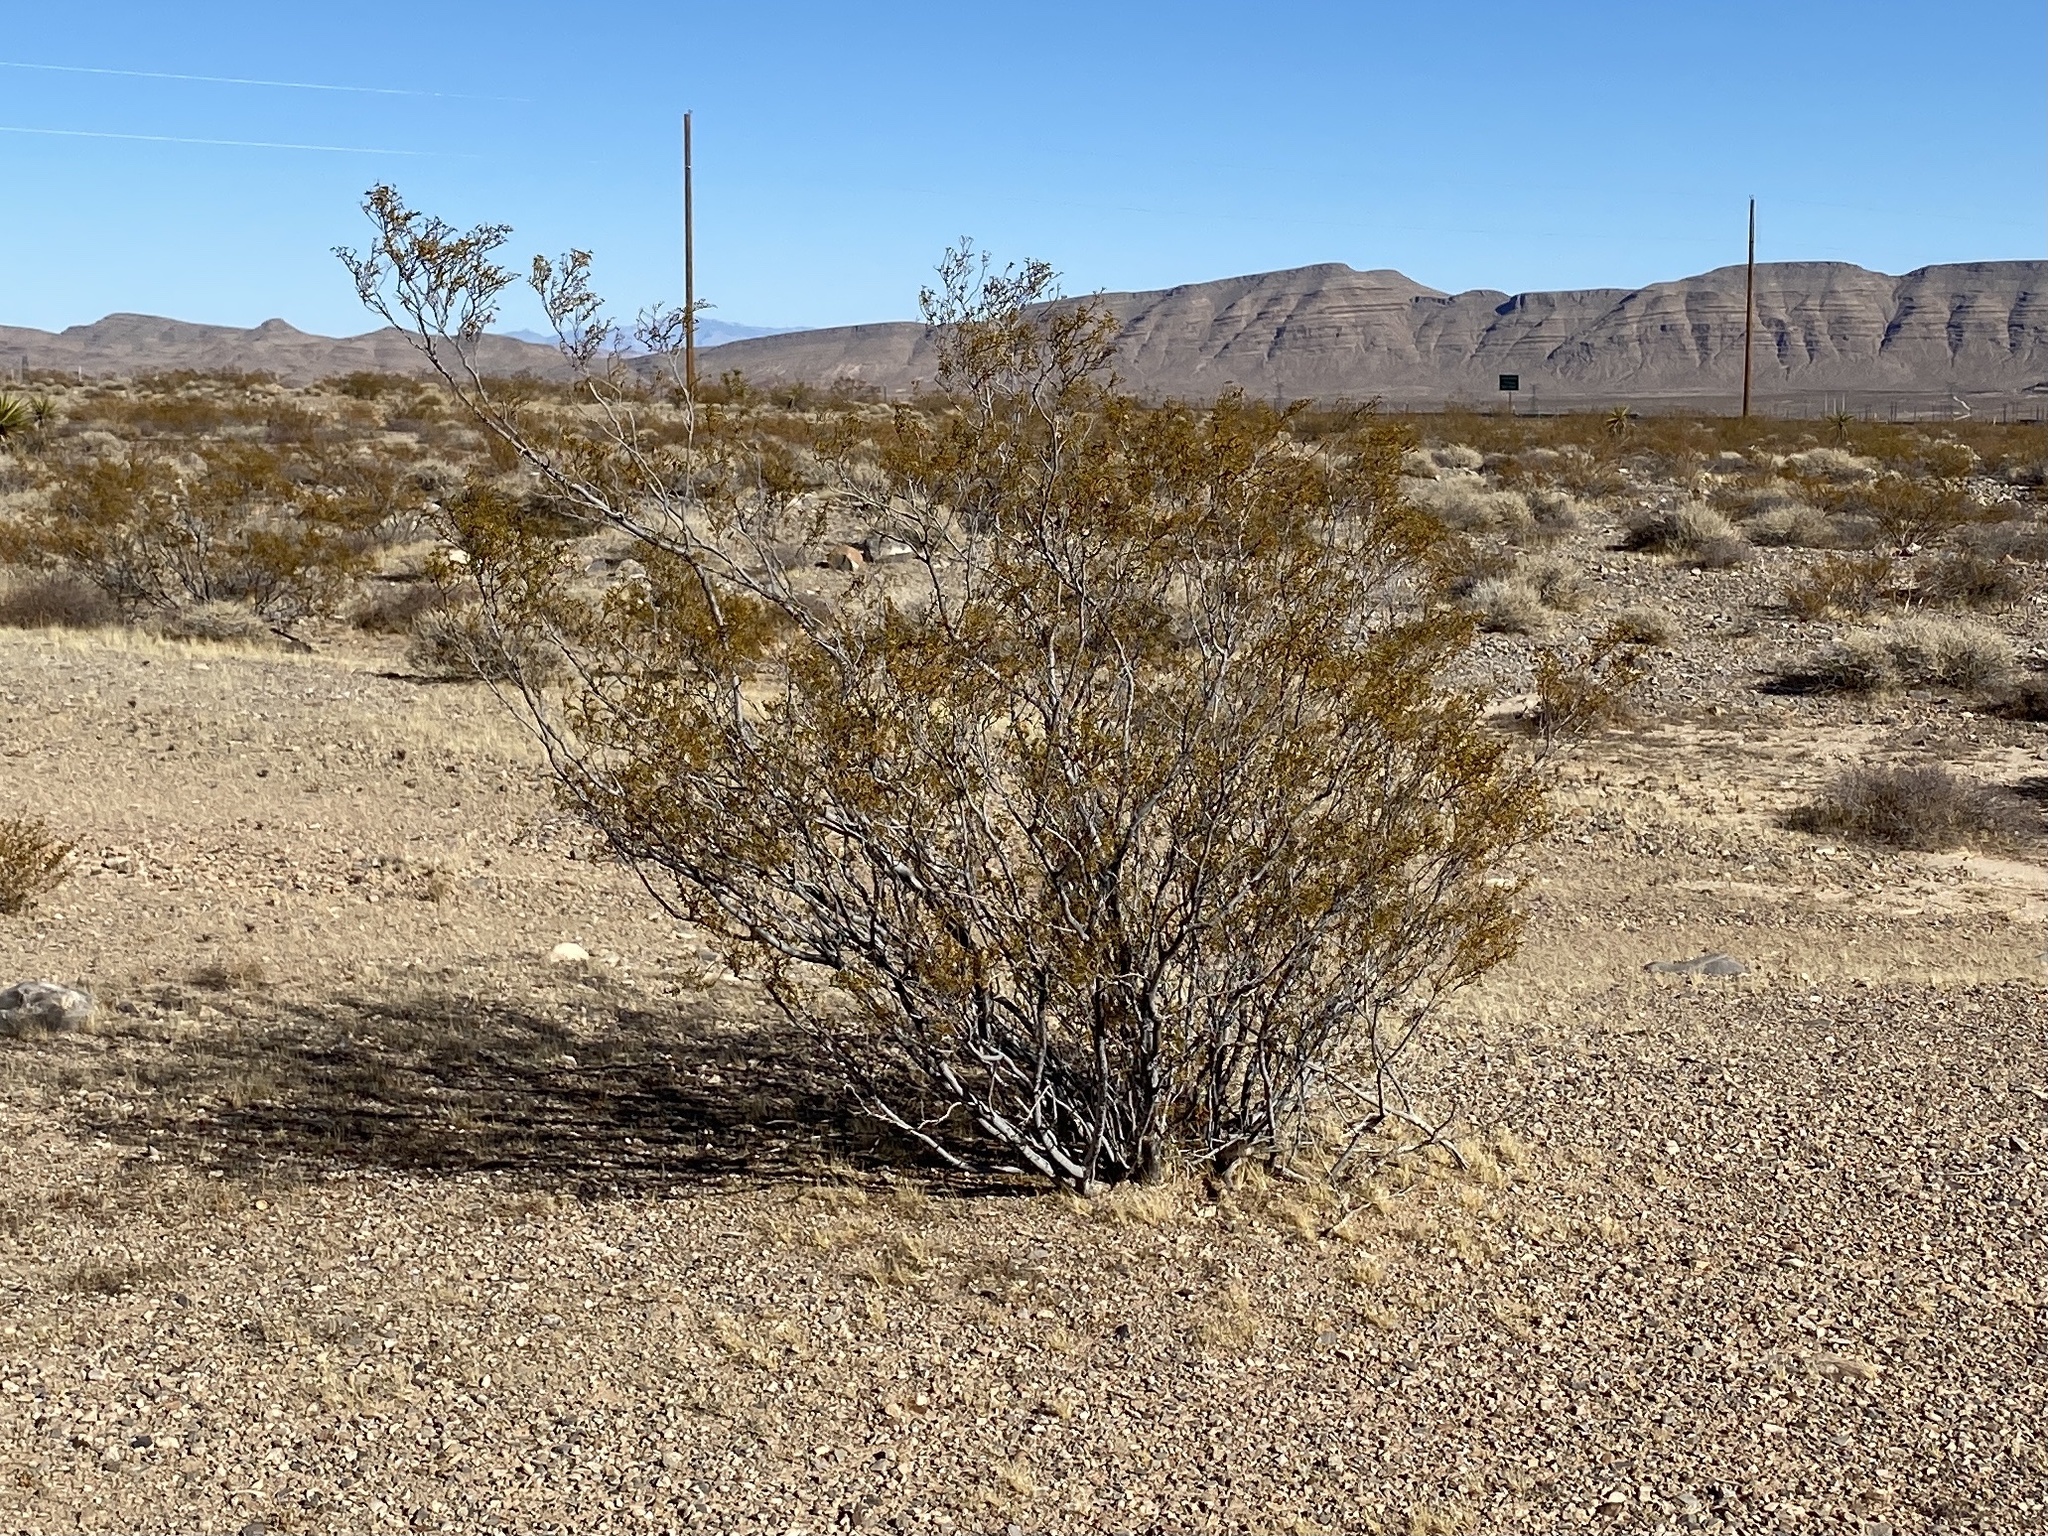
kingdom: Plantae
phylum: Tracheophyta
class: Magnoliopsida
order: Zygophyllales
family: Zygophyllaceae
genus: Larrea
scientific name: Larrea tridentata
